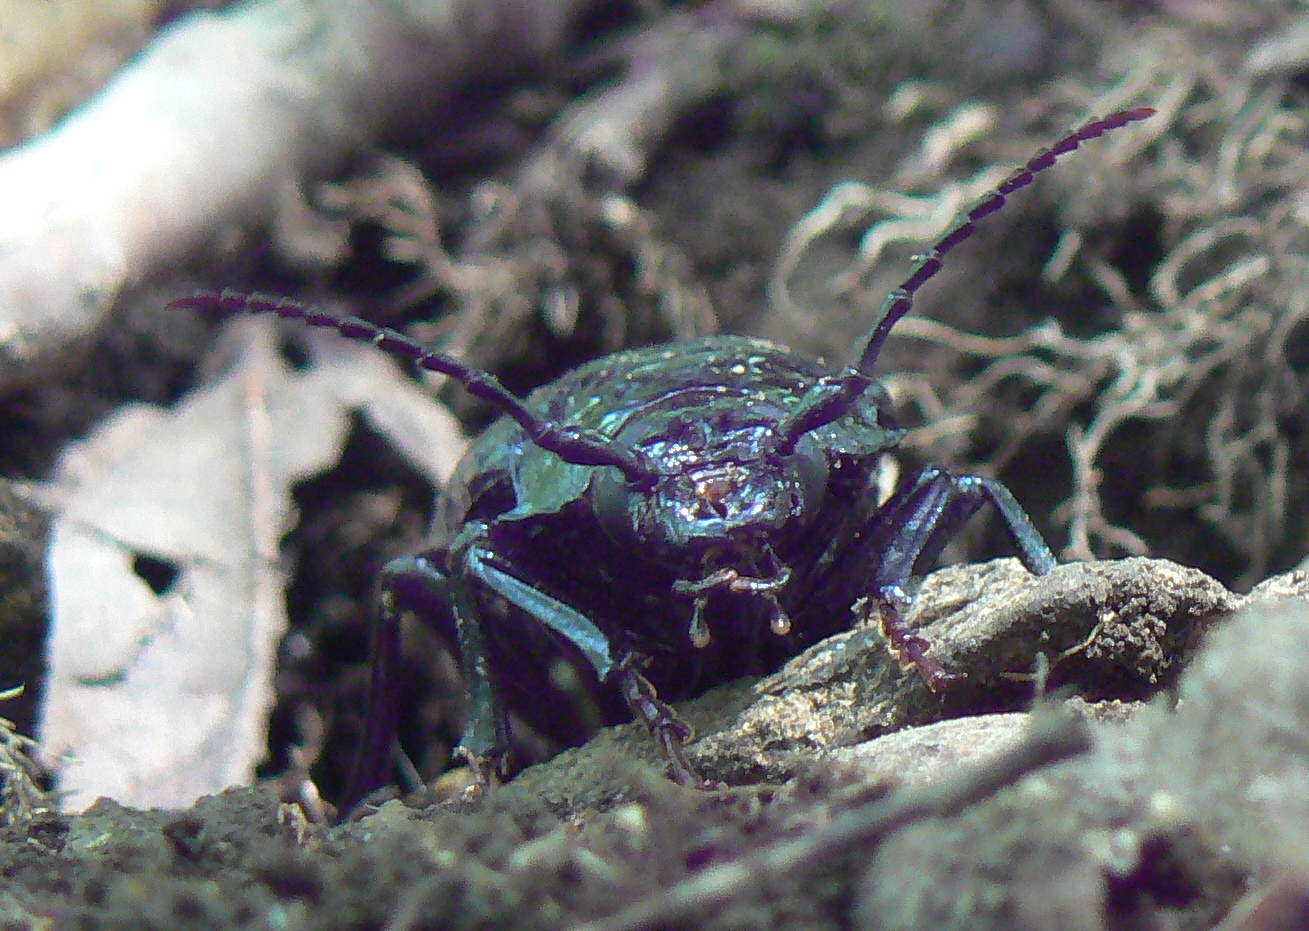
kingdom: Animalia
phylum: Arthropoda
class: Insecta
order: Coleoptera
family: Cerambycidae
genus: Prionus
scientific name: Prionus laticollis
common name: Broad necked prionus
